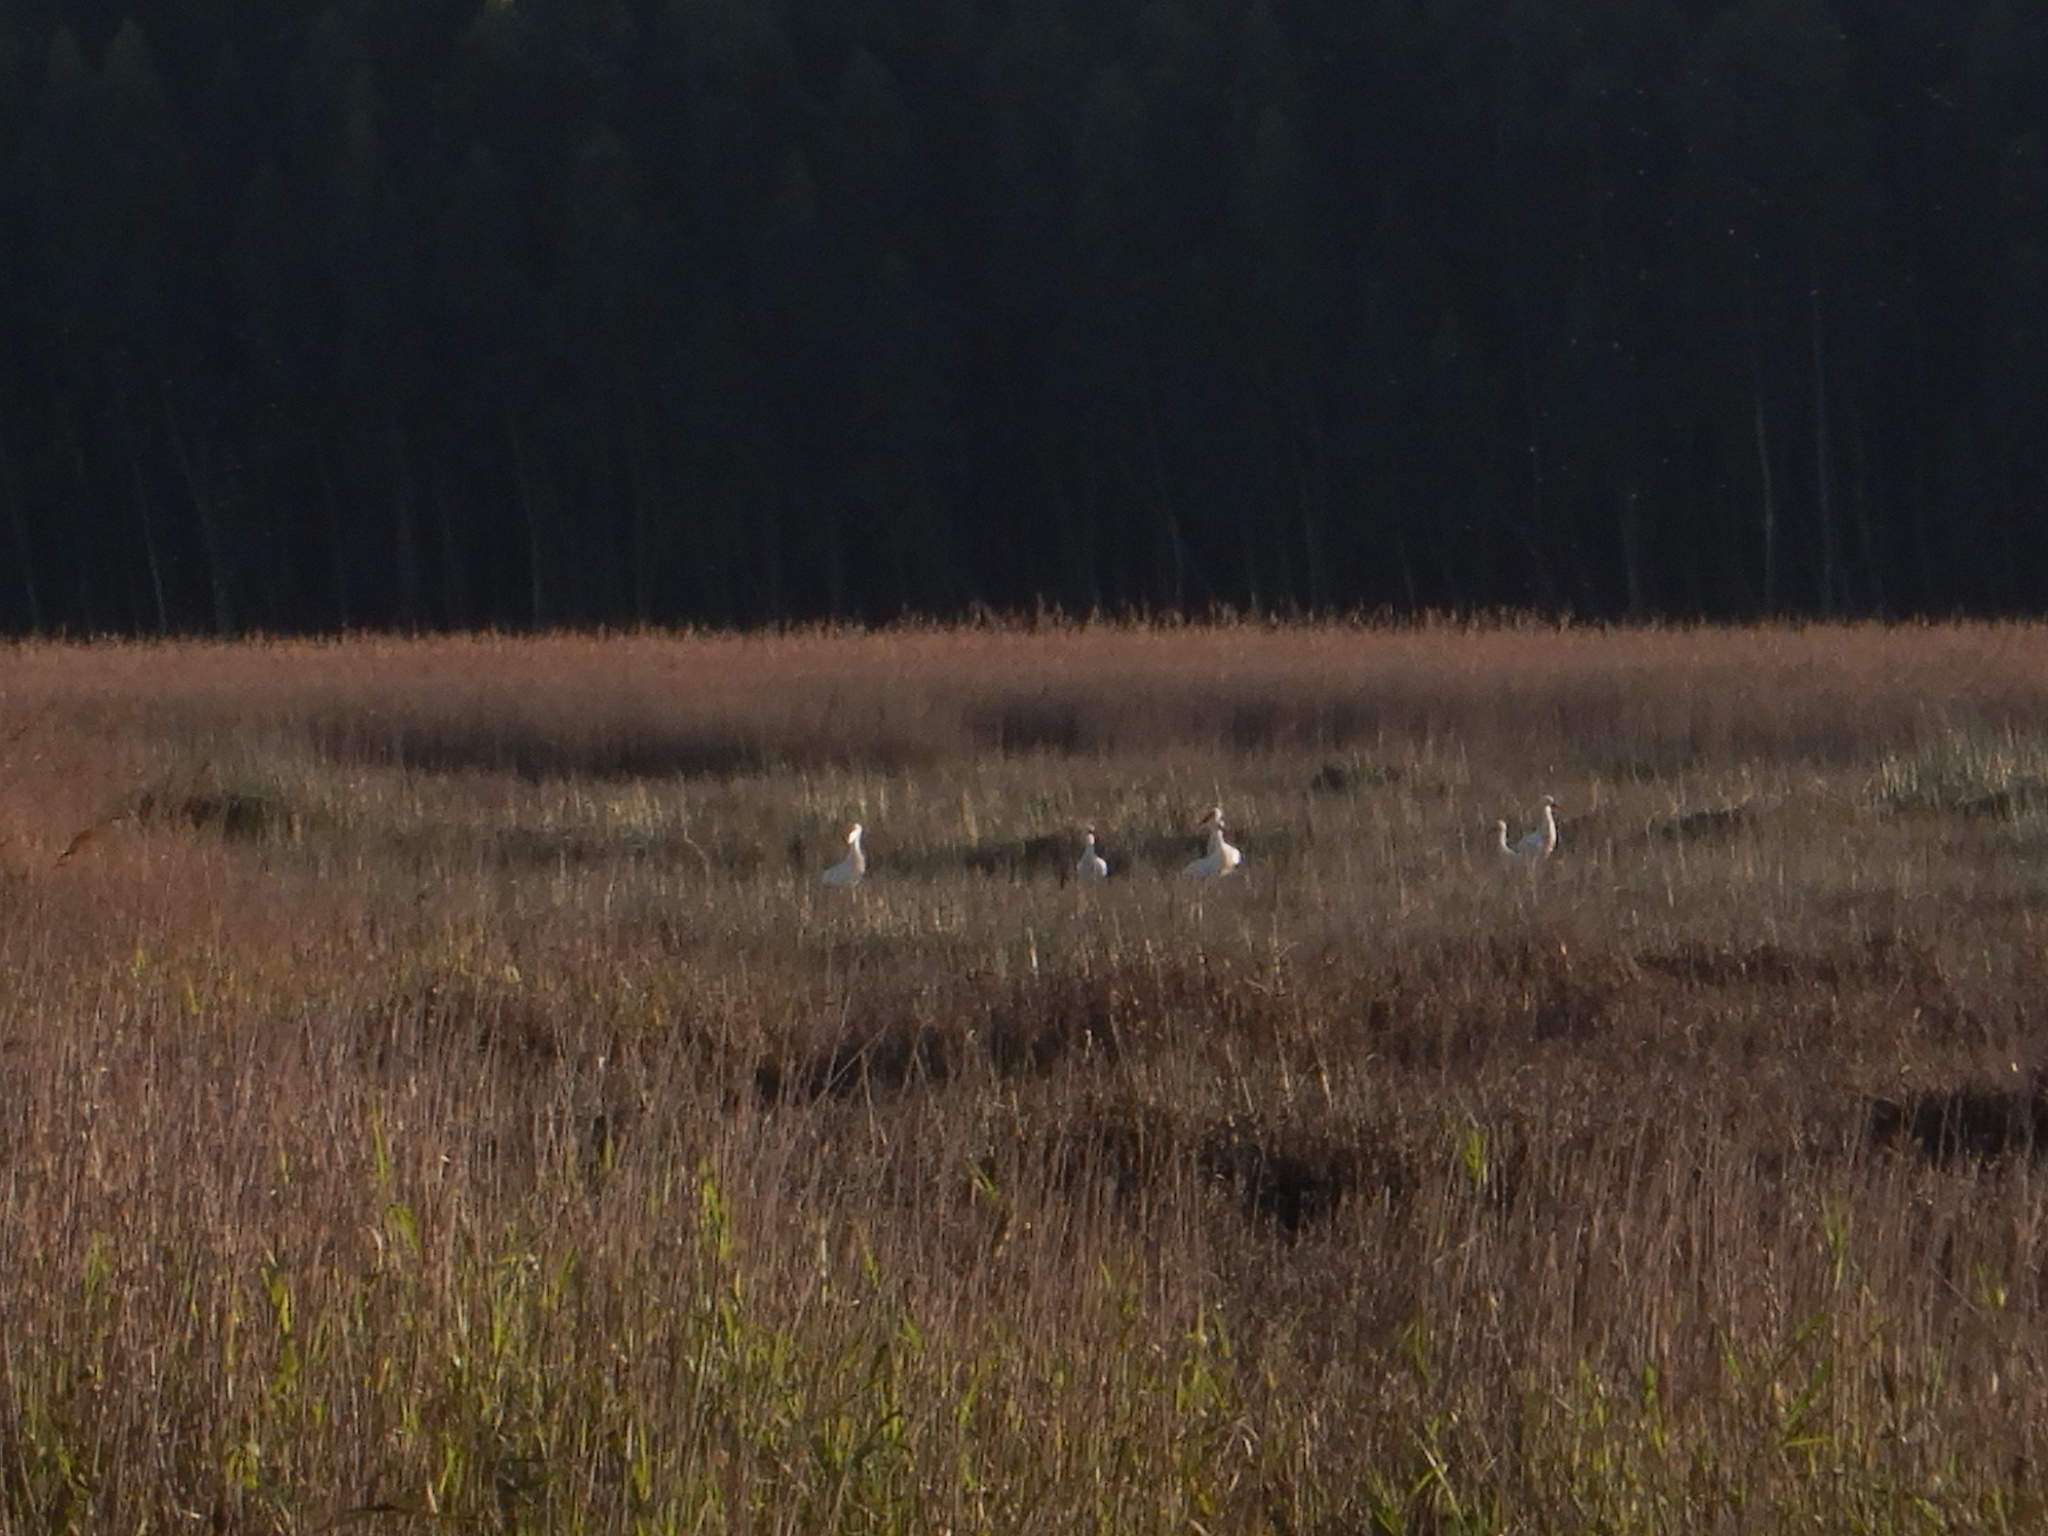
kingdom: Animalia
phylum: Chordata
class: Aves
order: Ciconiiformes
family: Ciconiidae
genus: Ciconia
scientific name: Ciconia ciconia
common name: White stork
